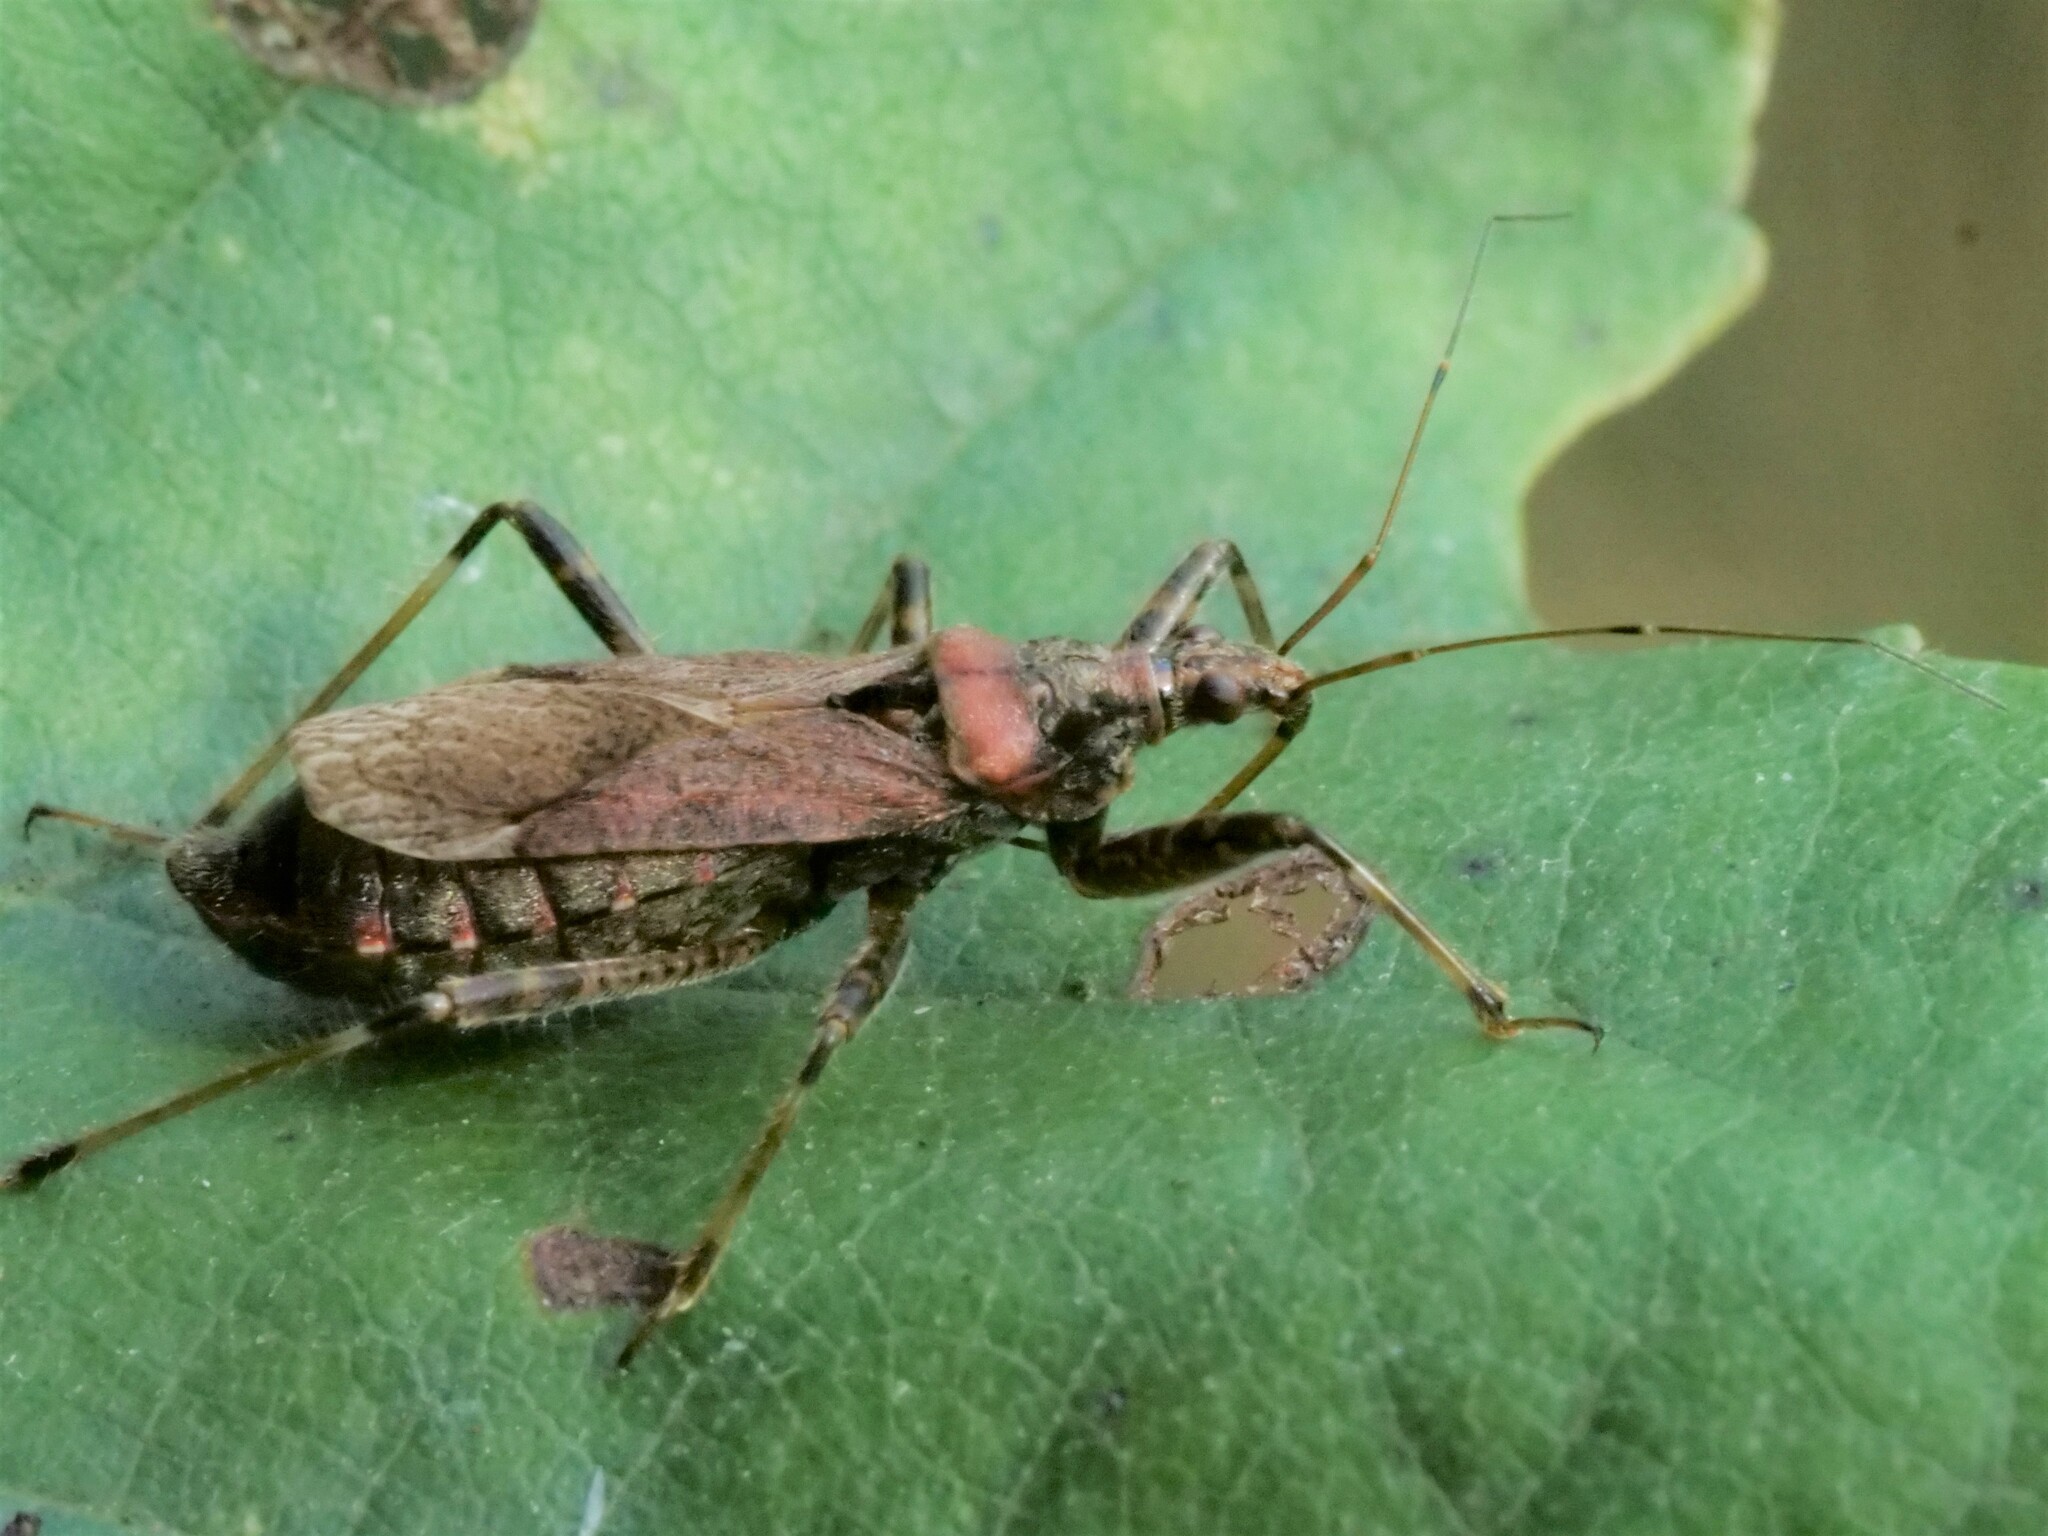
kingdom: Animalia
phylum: Arthropoda
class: Insecta
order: Hemiptera
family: Nabidae
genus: Himacerus
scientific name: Himacerus apterus
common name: Tree damsel bug
